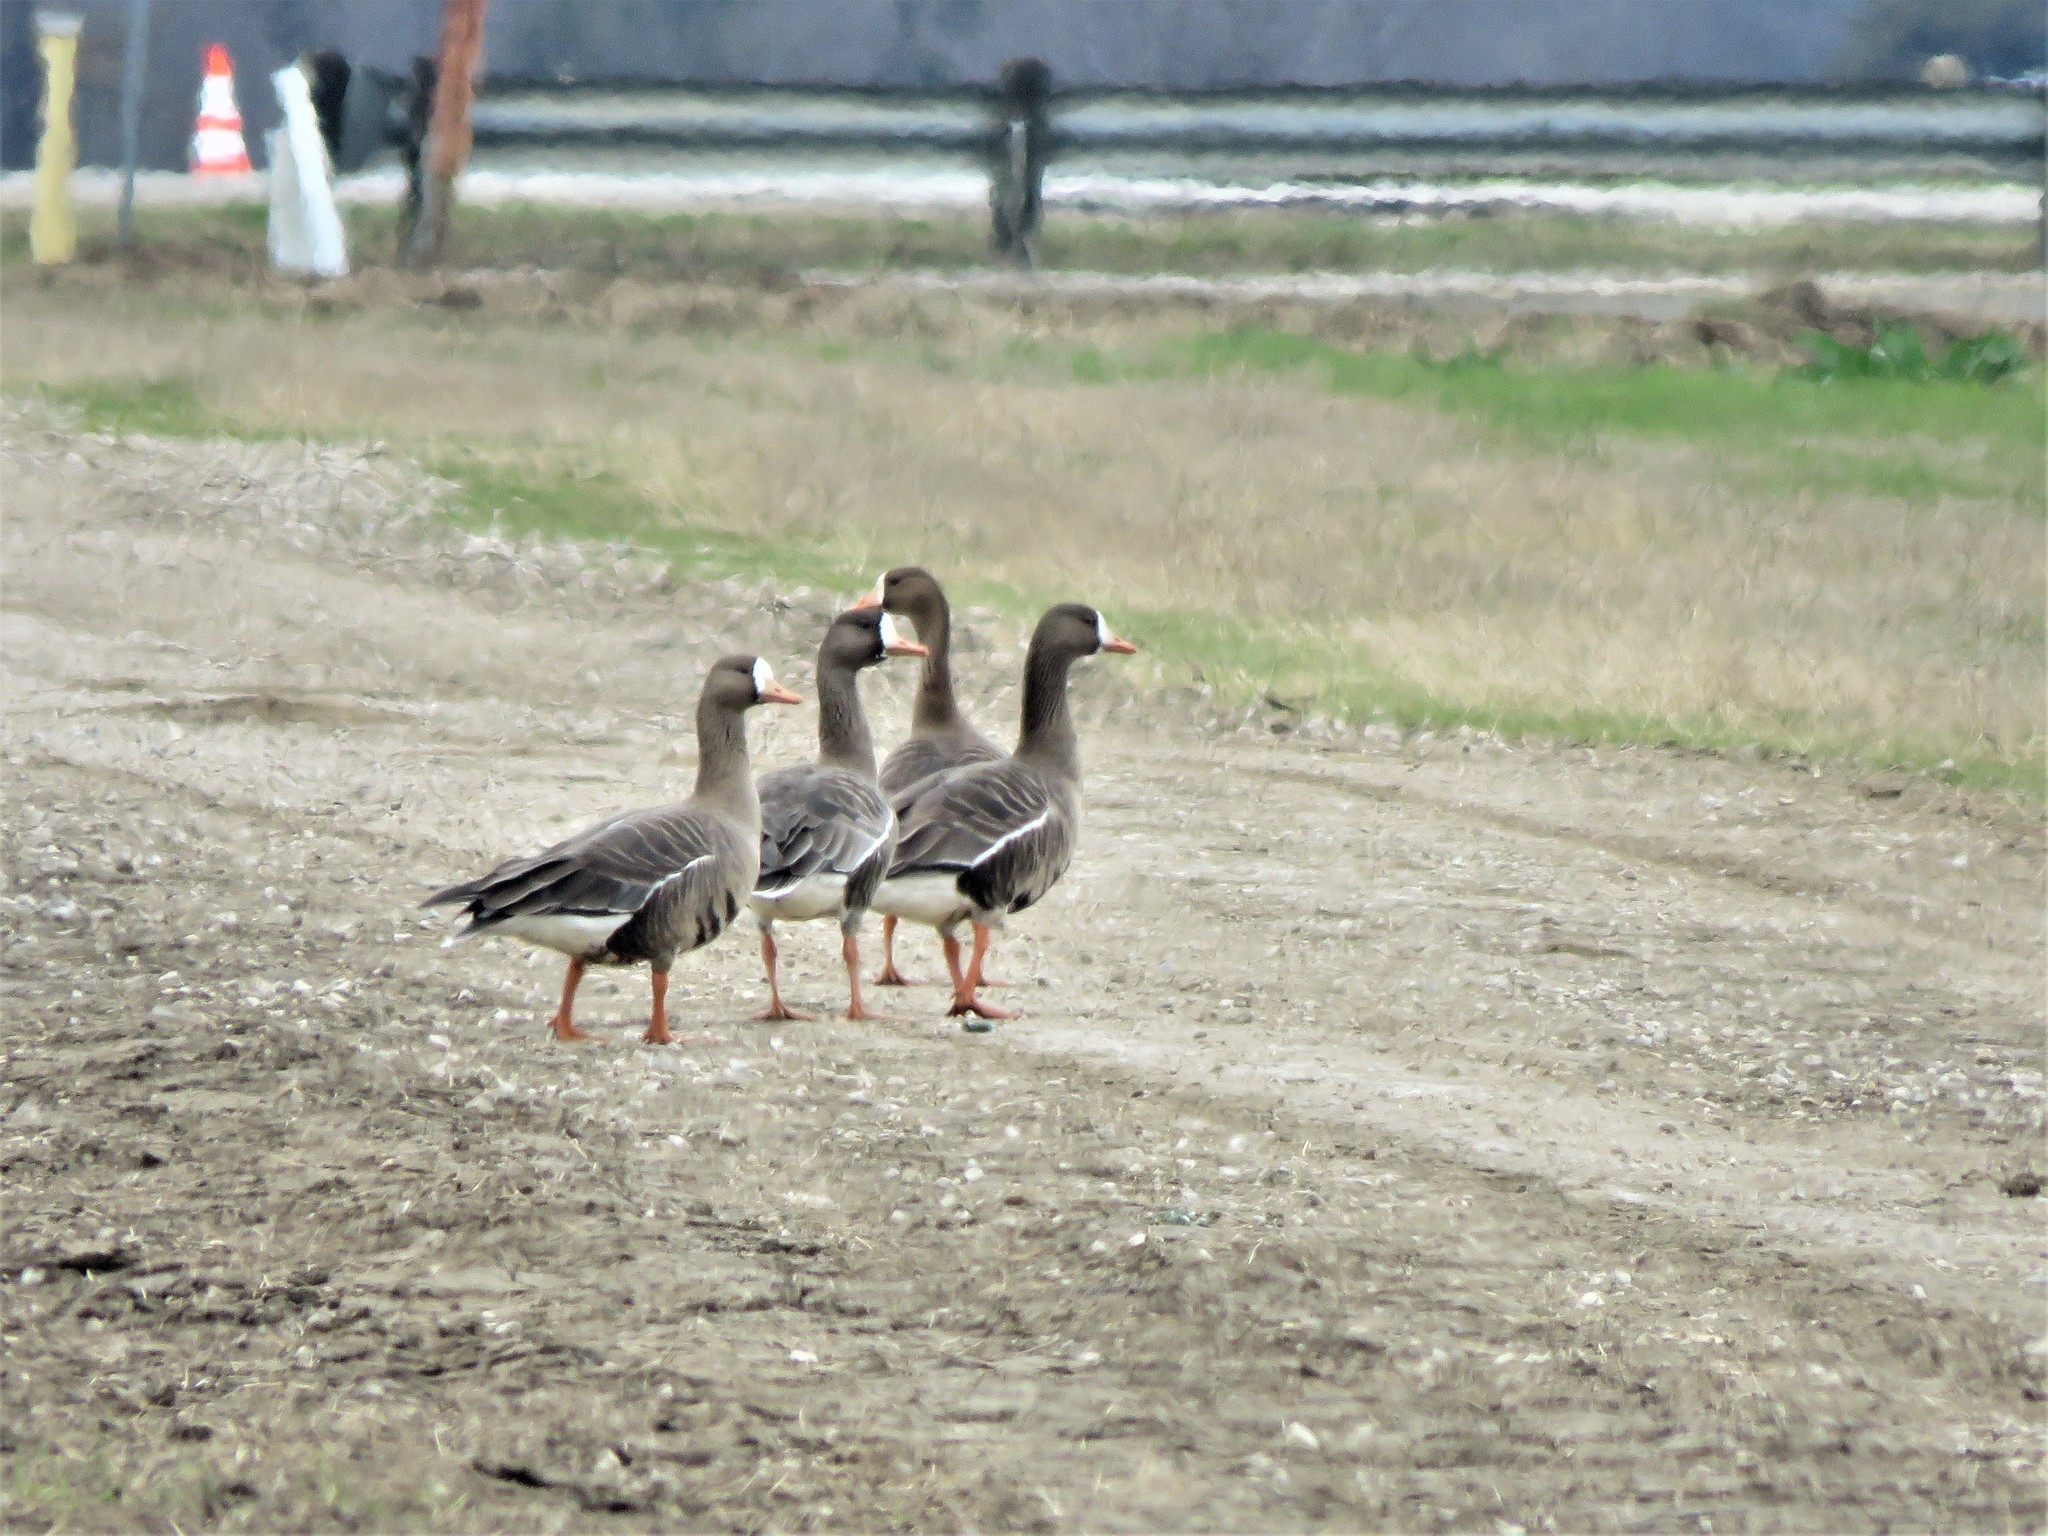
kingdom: Animalia
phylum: Chordata
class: Aves
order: Anseriformes
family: Anatidae
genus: Anser
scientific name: Anser albifrons
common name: Greater white-fronted goose
